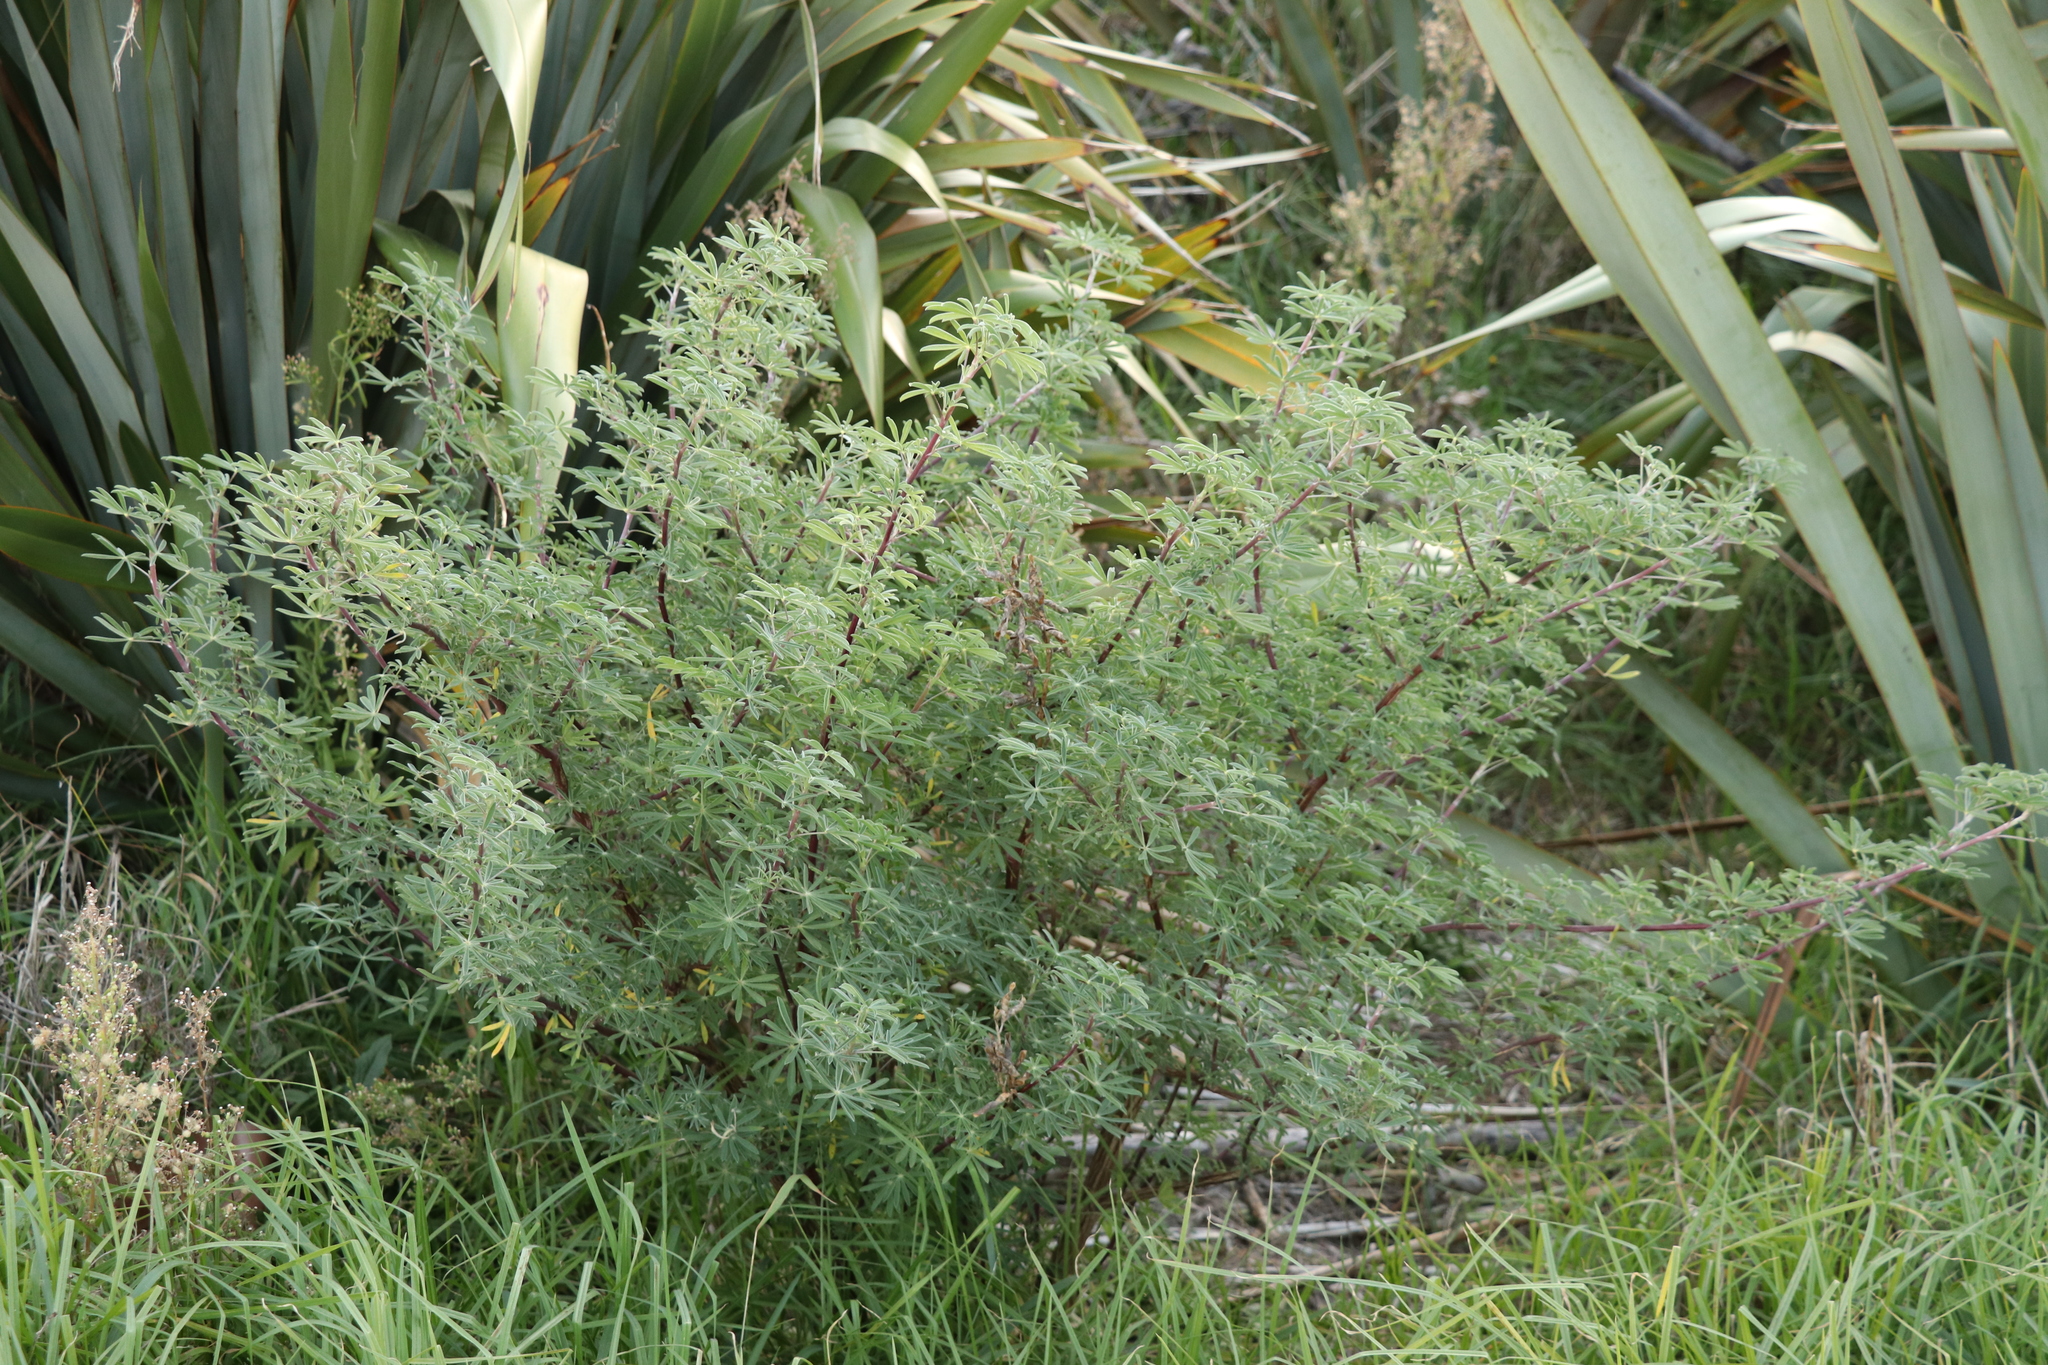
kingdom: Plantae
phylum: Tracheophyta
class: Magnoliopsida
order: Fabales
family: Fabaceae
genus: Lupinus
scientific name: Lupinus arboreus
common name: Yellow bush lupine
